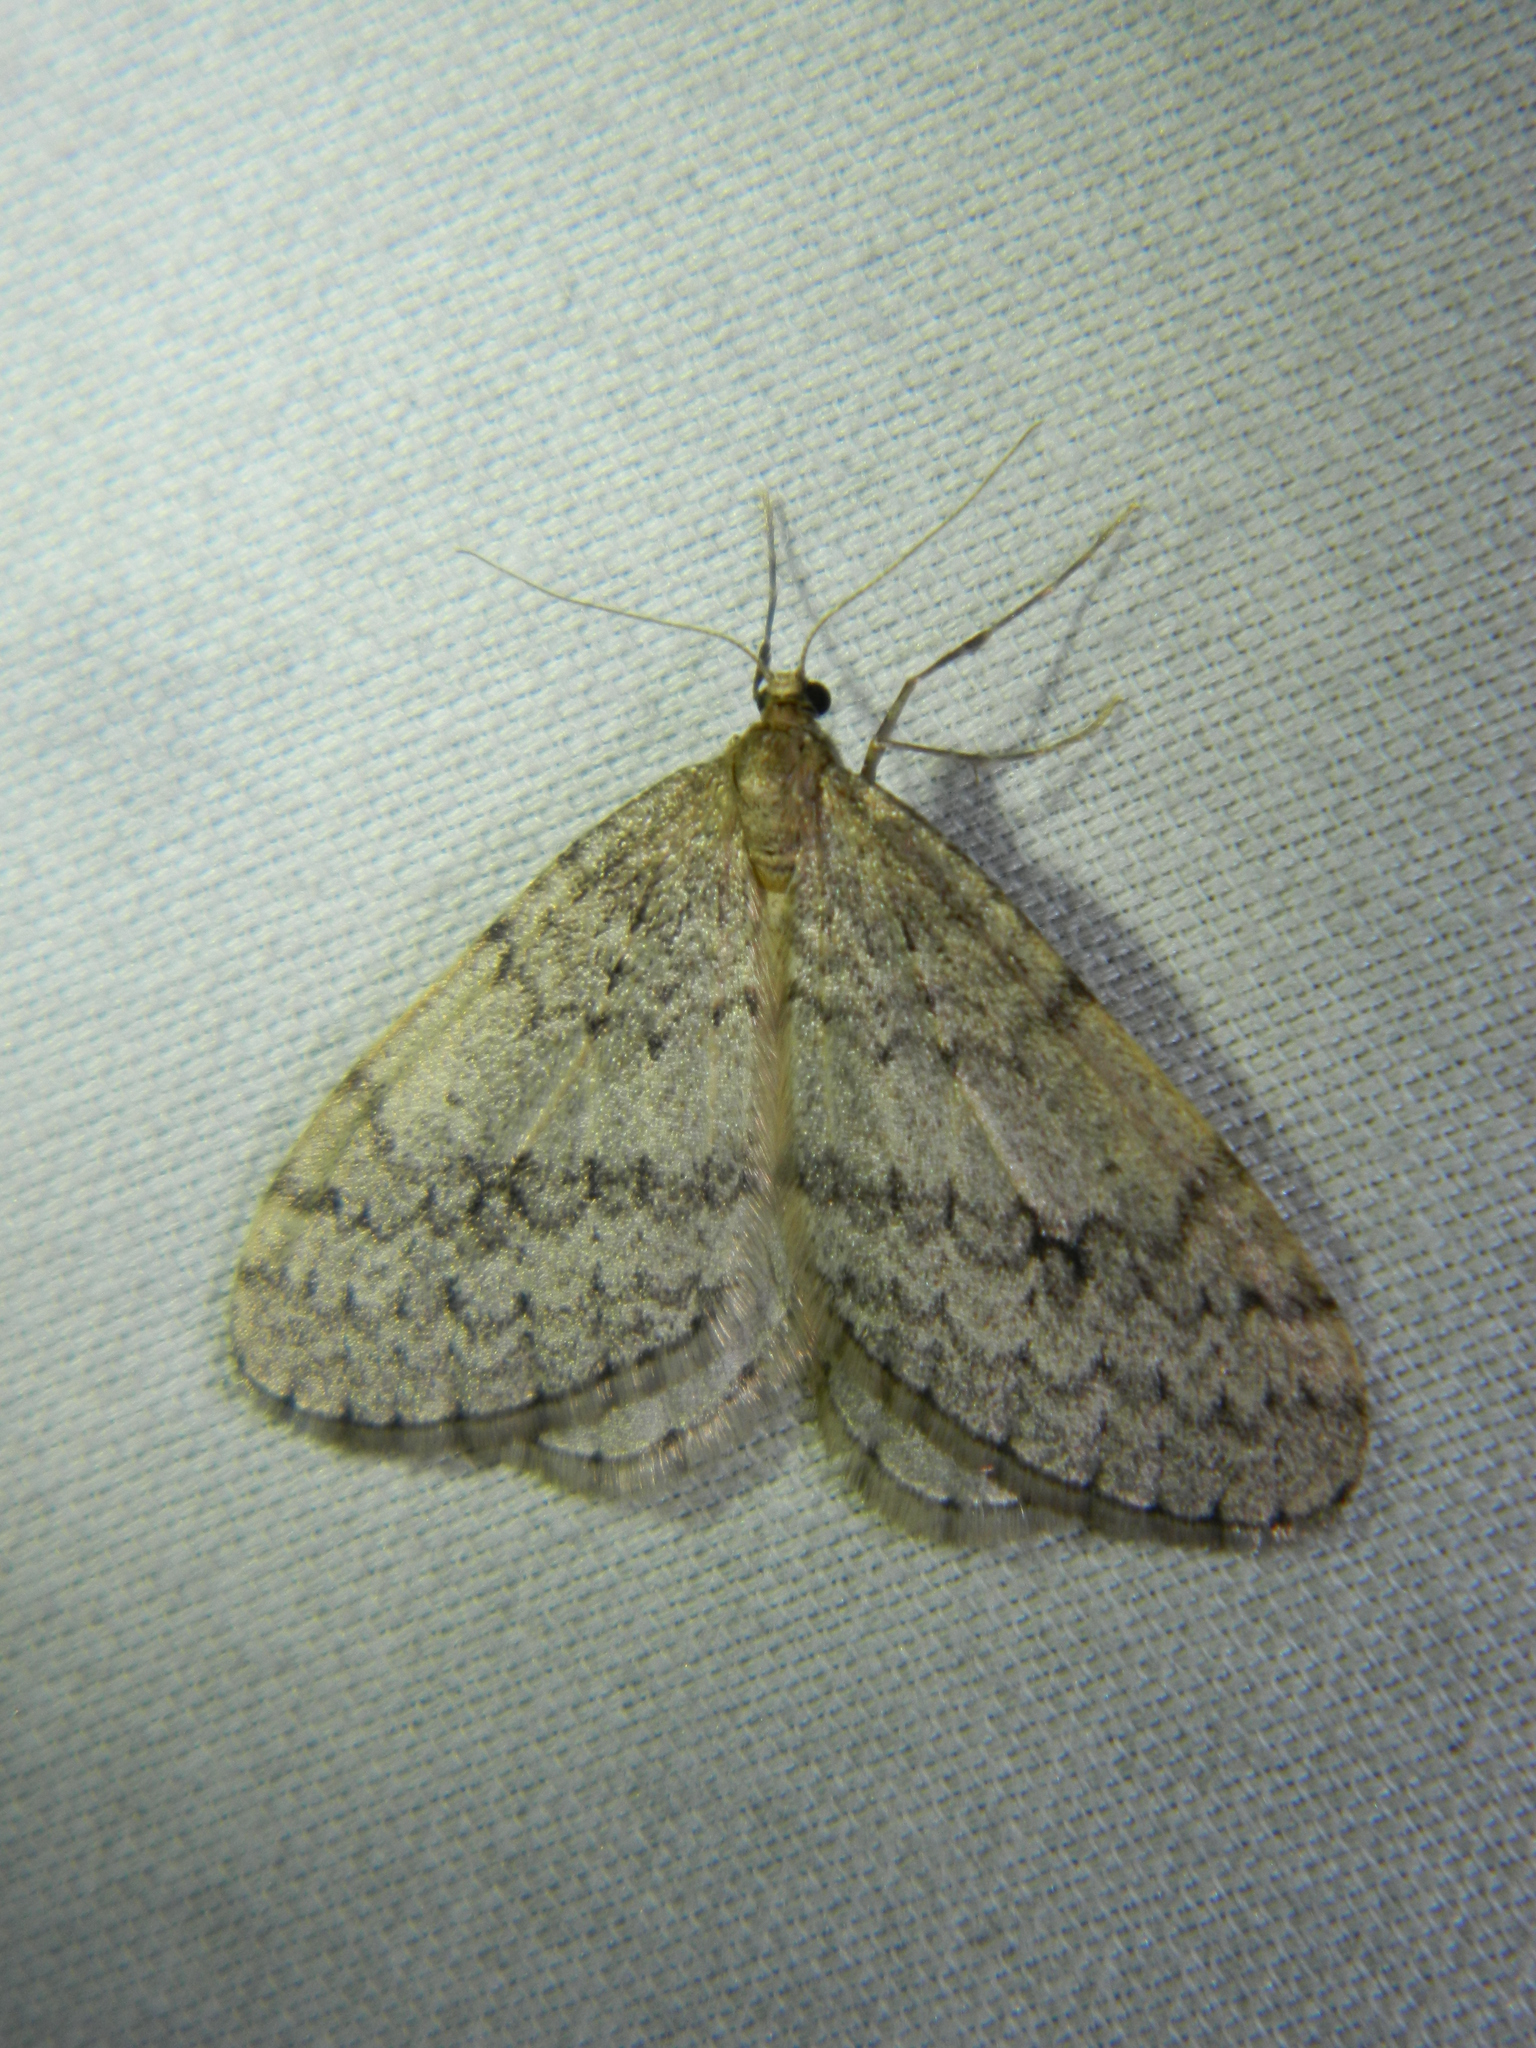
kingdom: Animalia
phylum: Arthropoda
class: Insecta
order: Lepidoptera
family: Geometridae
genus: Operophtera
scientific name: Operophtera bruceata
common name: Bruce spanworm
